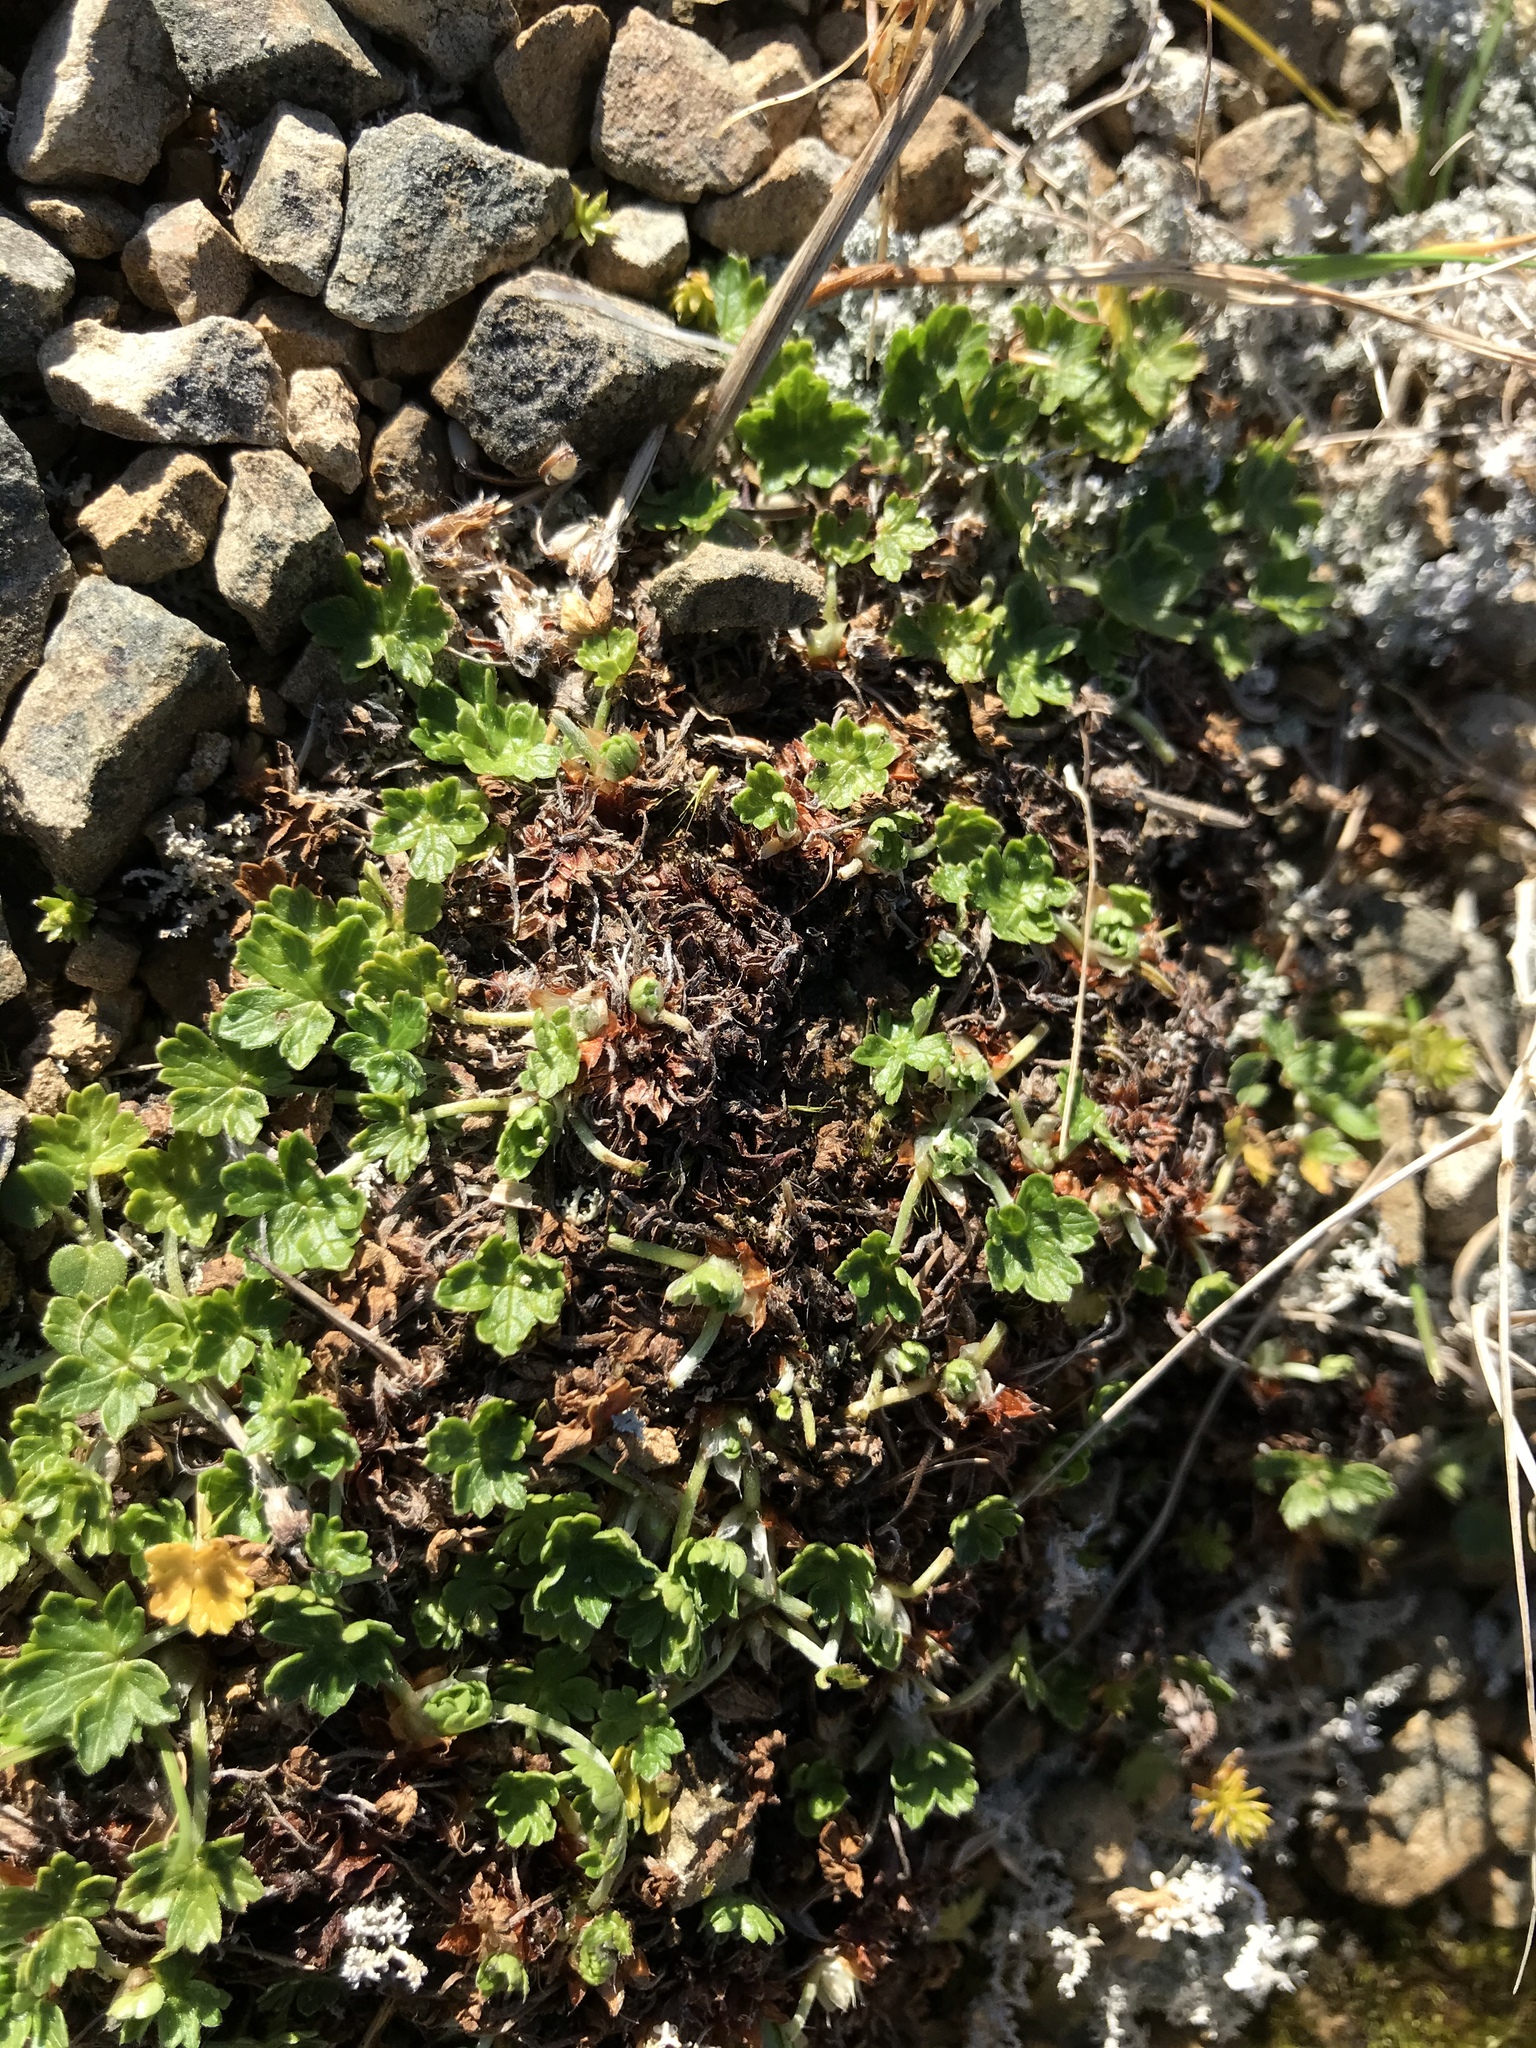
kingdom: Plantae
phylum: Tracheophyta
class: Magnoliopsida
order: Geraniales
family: Geraniaceae
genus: Geranium
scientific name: Geranium brevicaule
